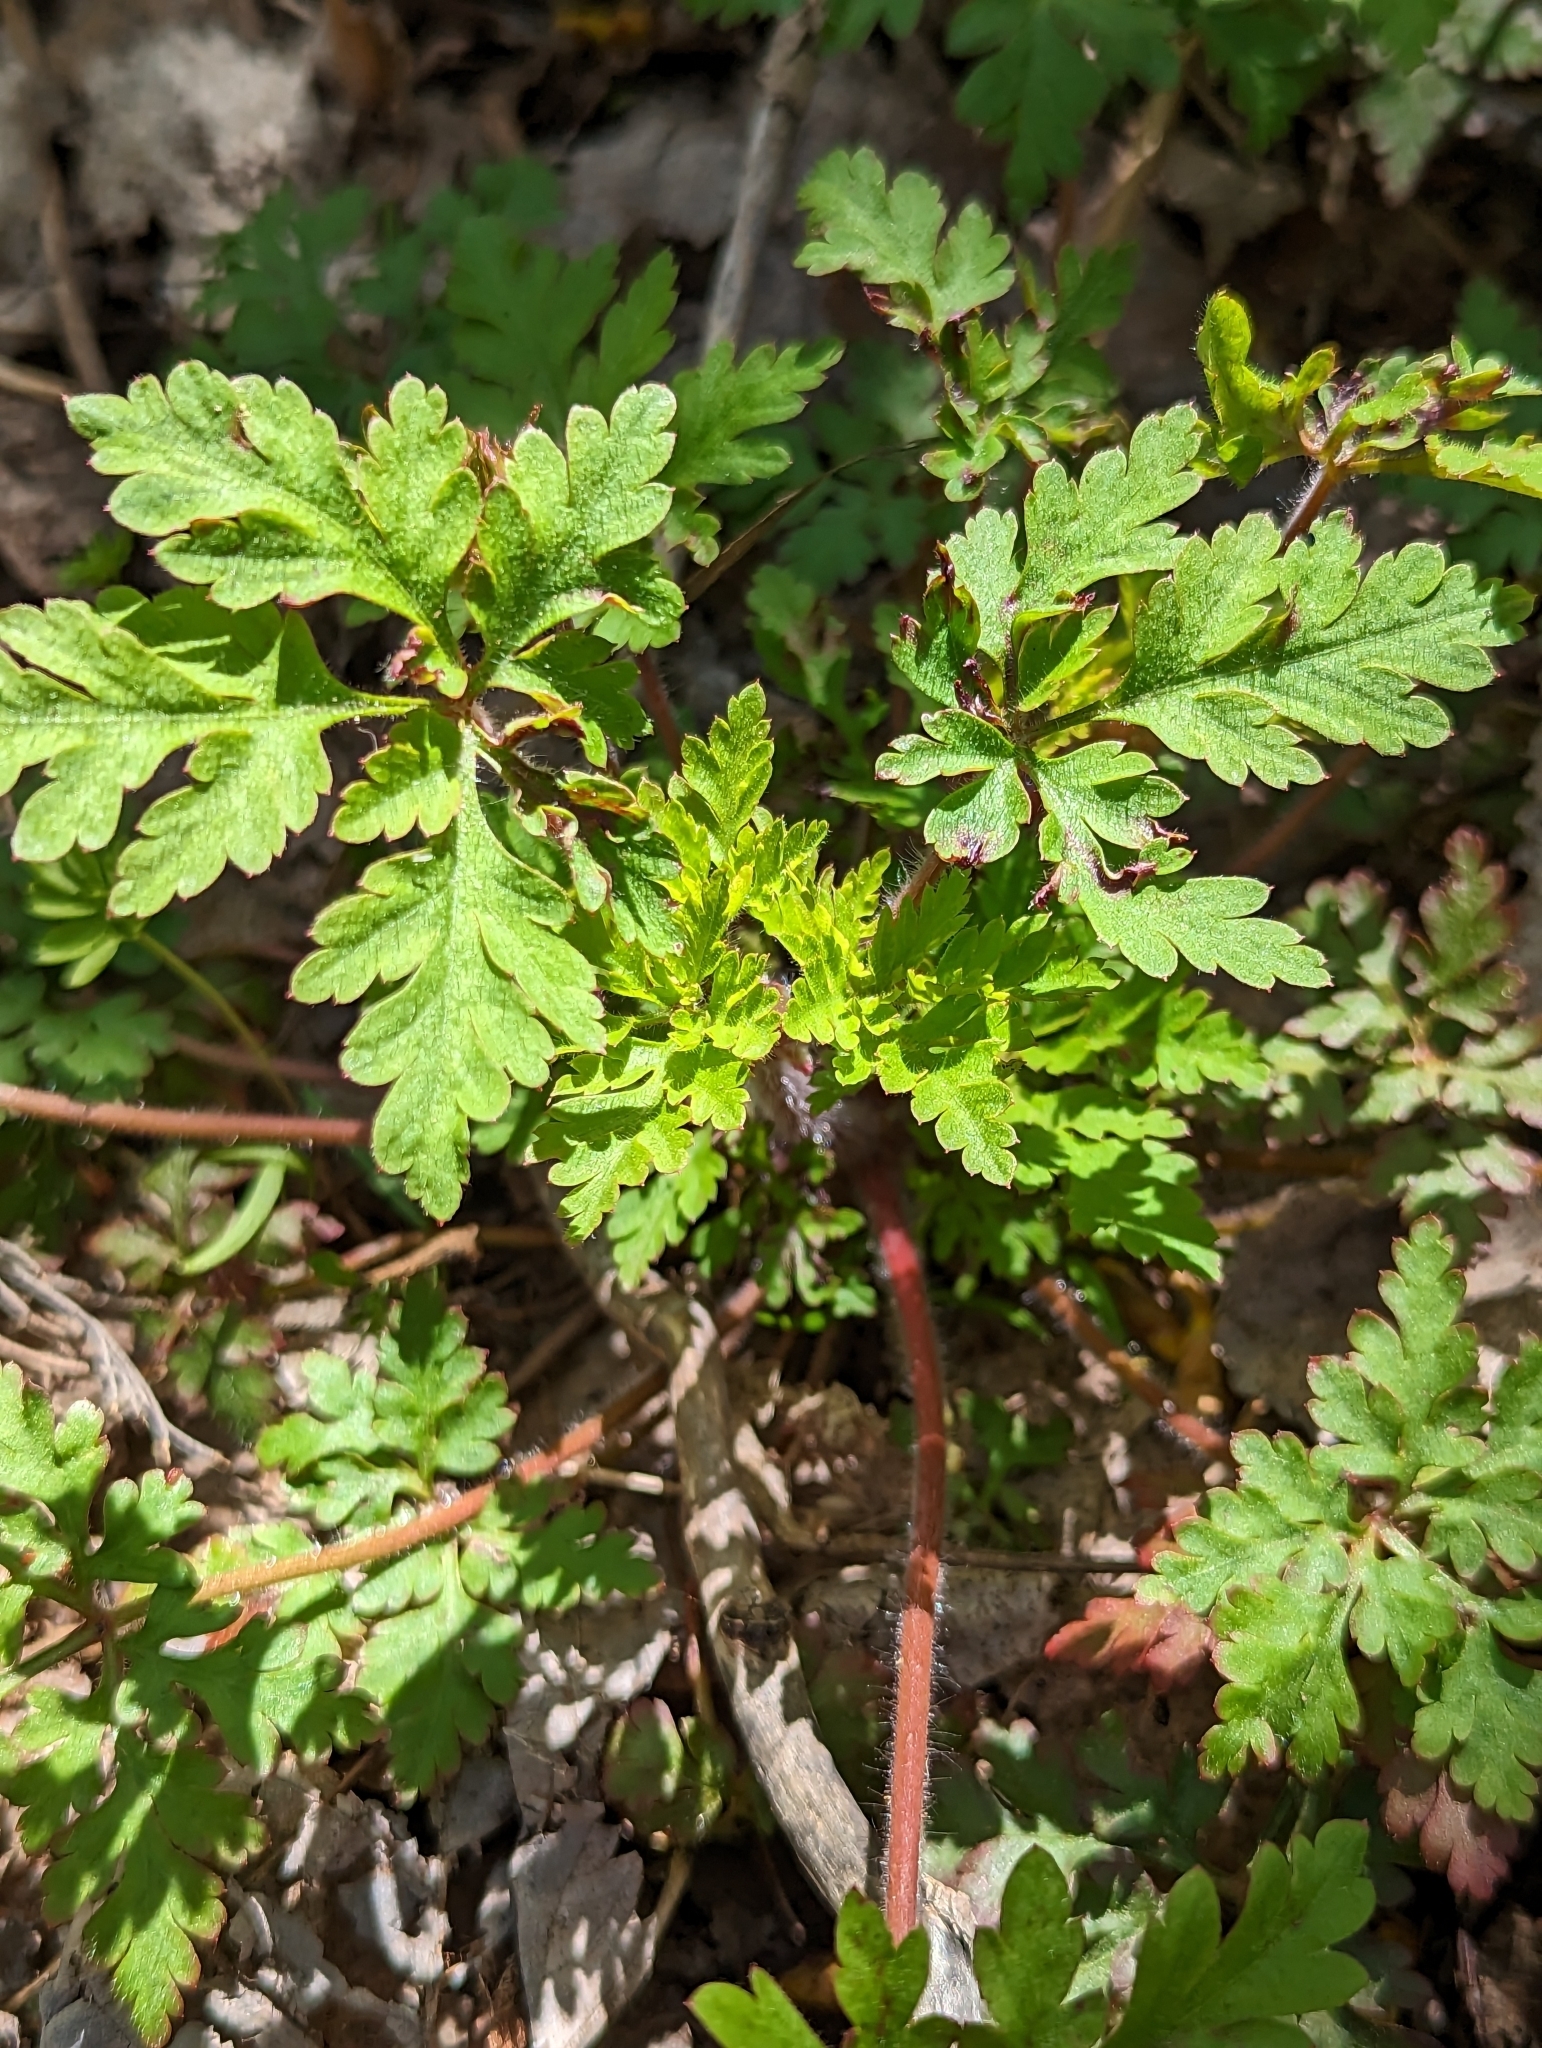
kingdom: Plantae
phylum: Tracheophyta
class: Magnoliopsida
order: Geraniales
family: Geraniaceae
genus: Geranium
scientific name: Geranium robertianum
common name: Herb-robert
